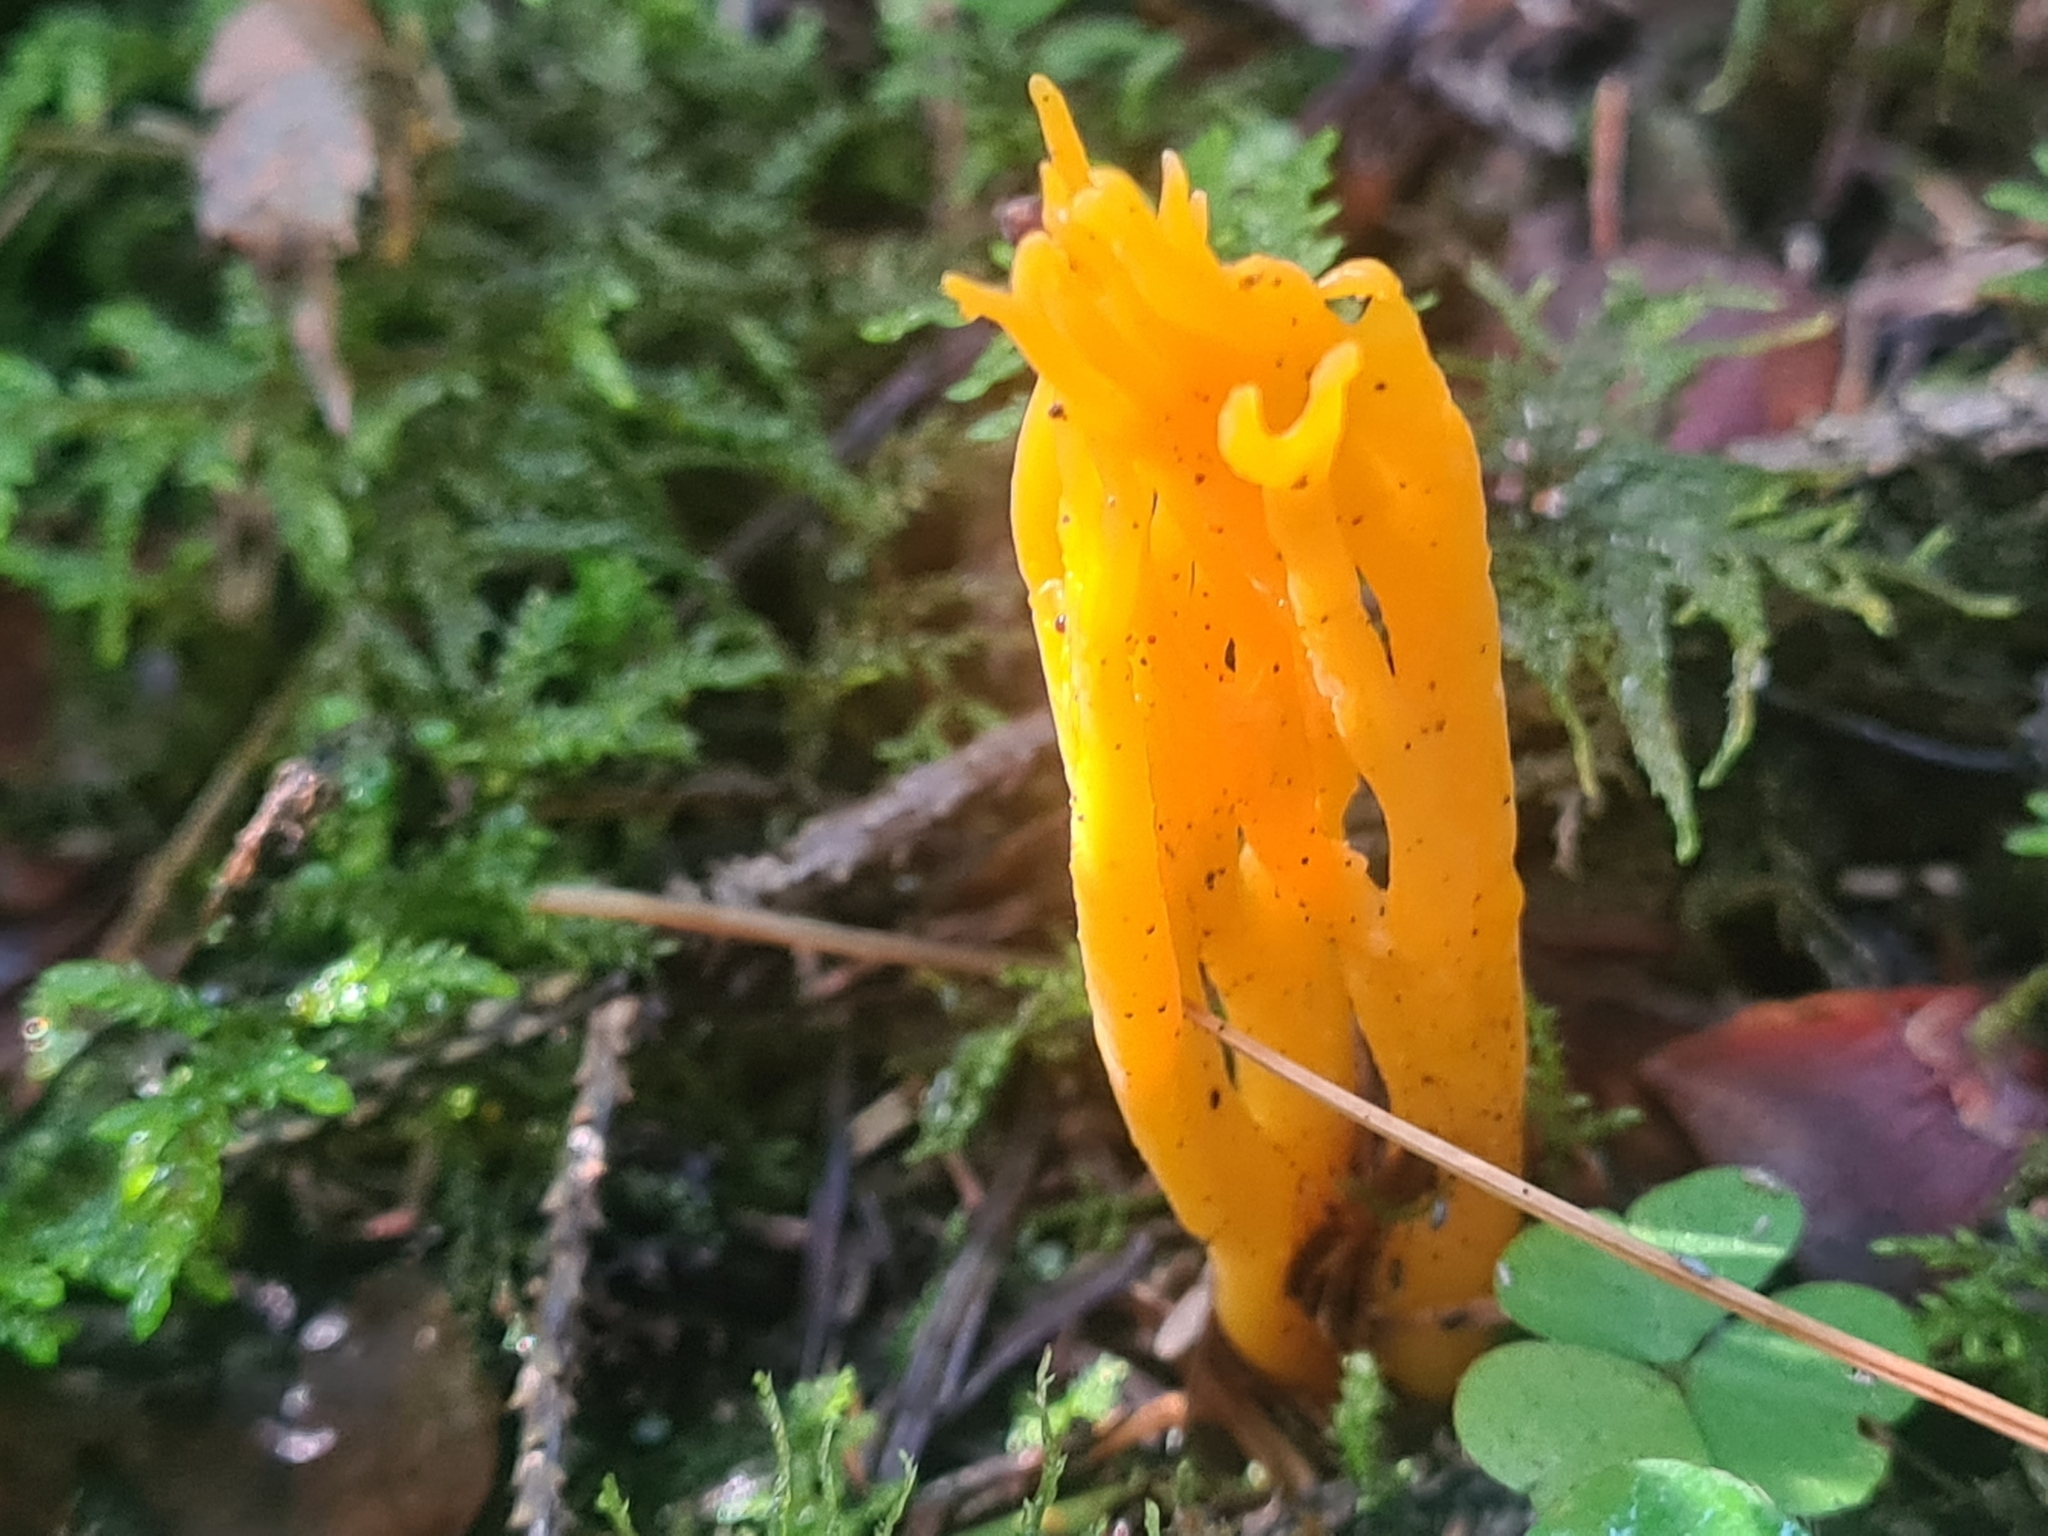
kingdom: Fungi
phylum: Basidiomycota
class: Dacrymycetes
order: Dacrymycetales
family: Dacrymycetaceae
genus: Calocera
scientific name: Calocera viscosa
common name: Yellow stagshorn
